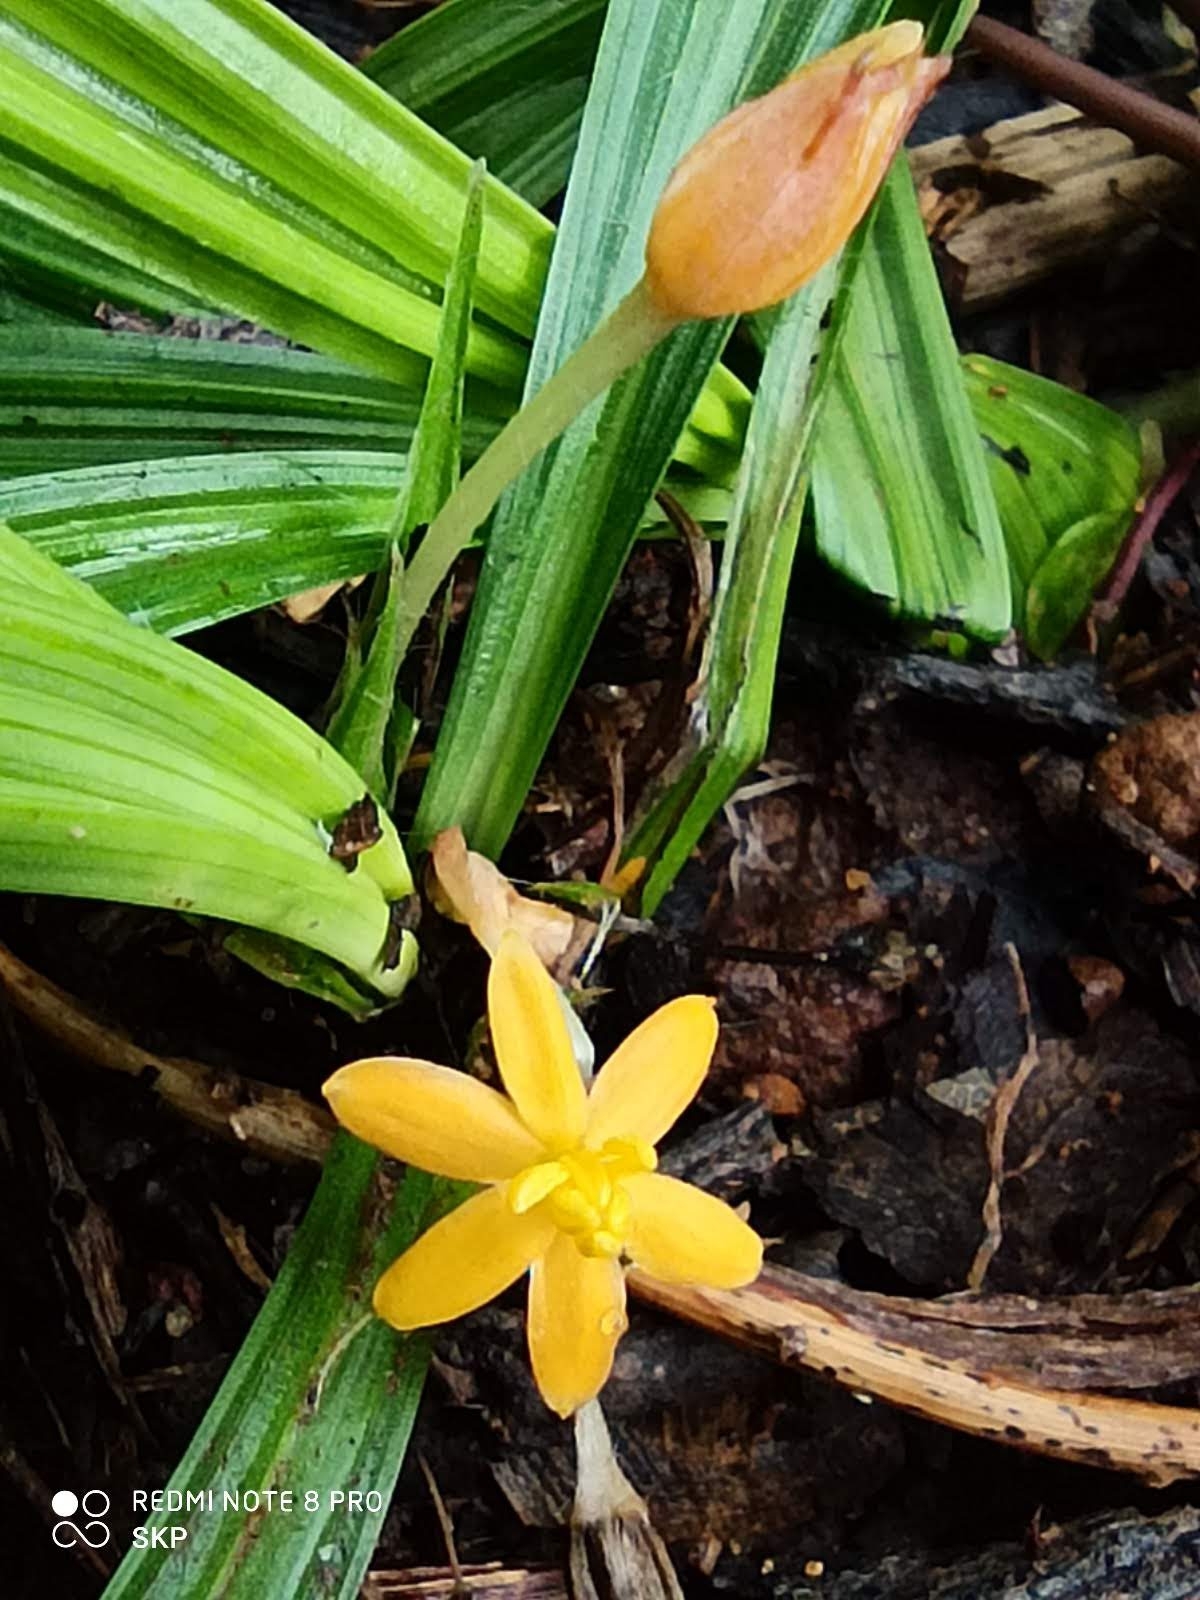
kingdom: Plantae
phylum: Tracheophyta
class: Liliopsida
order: Asparagales
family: Hypoxidaceae
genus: Curculigo
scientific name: Curculigo orchioides
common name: Golden eye-grass
